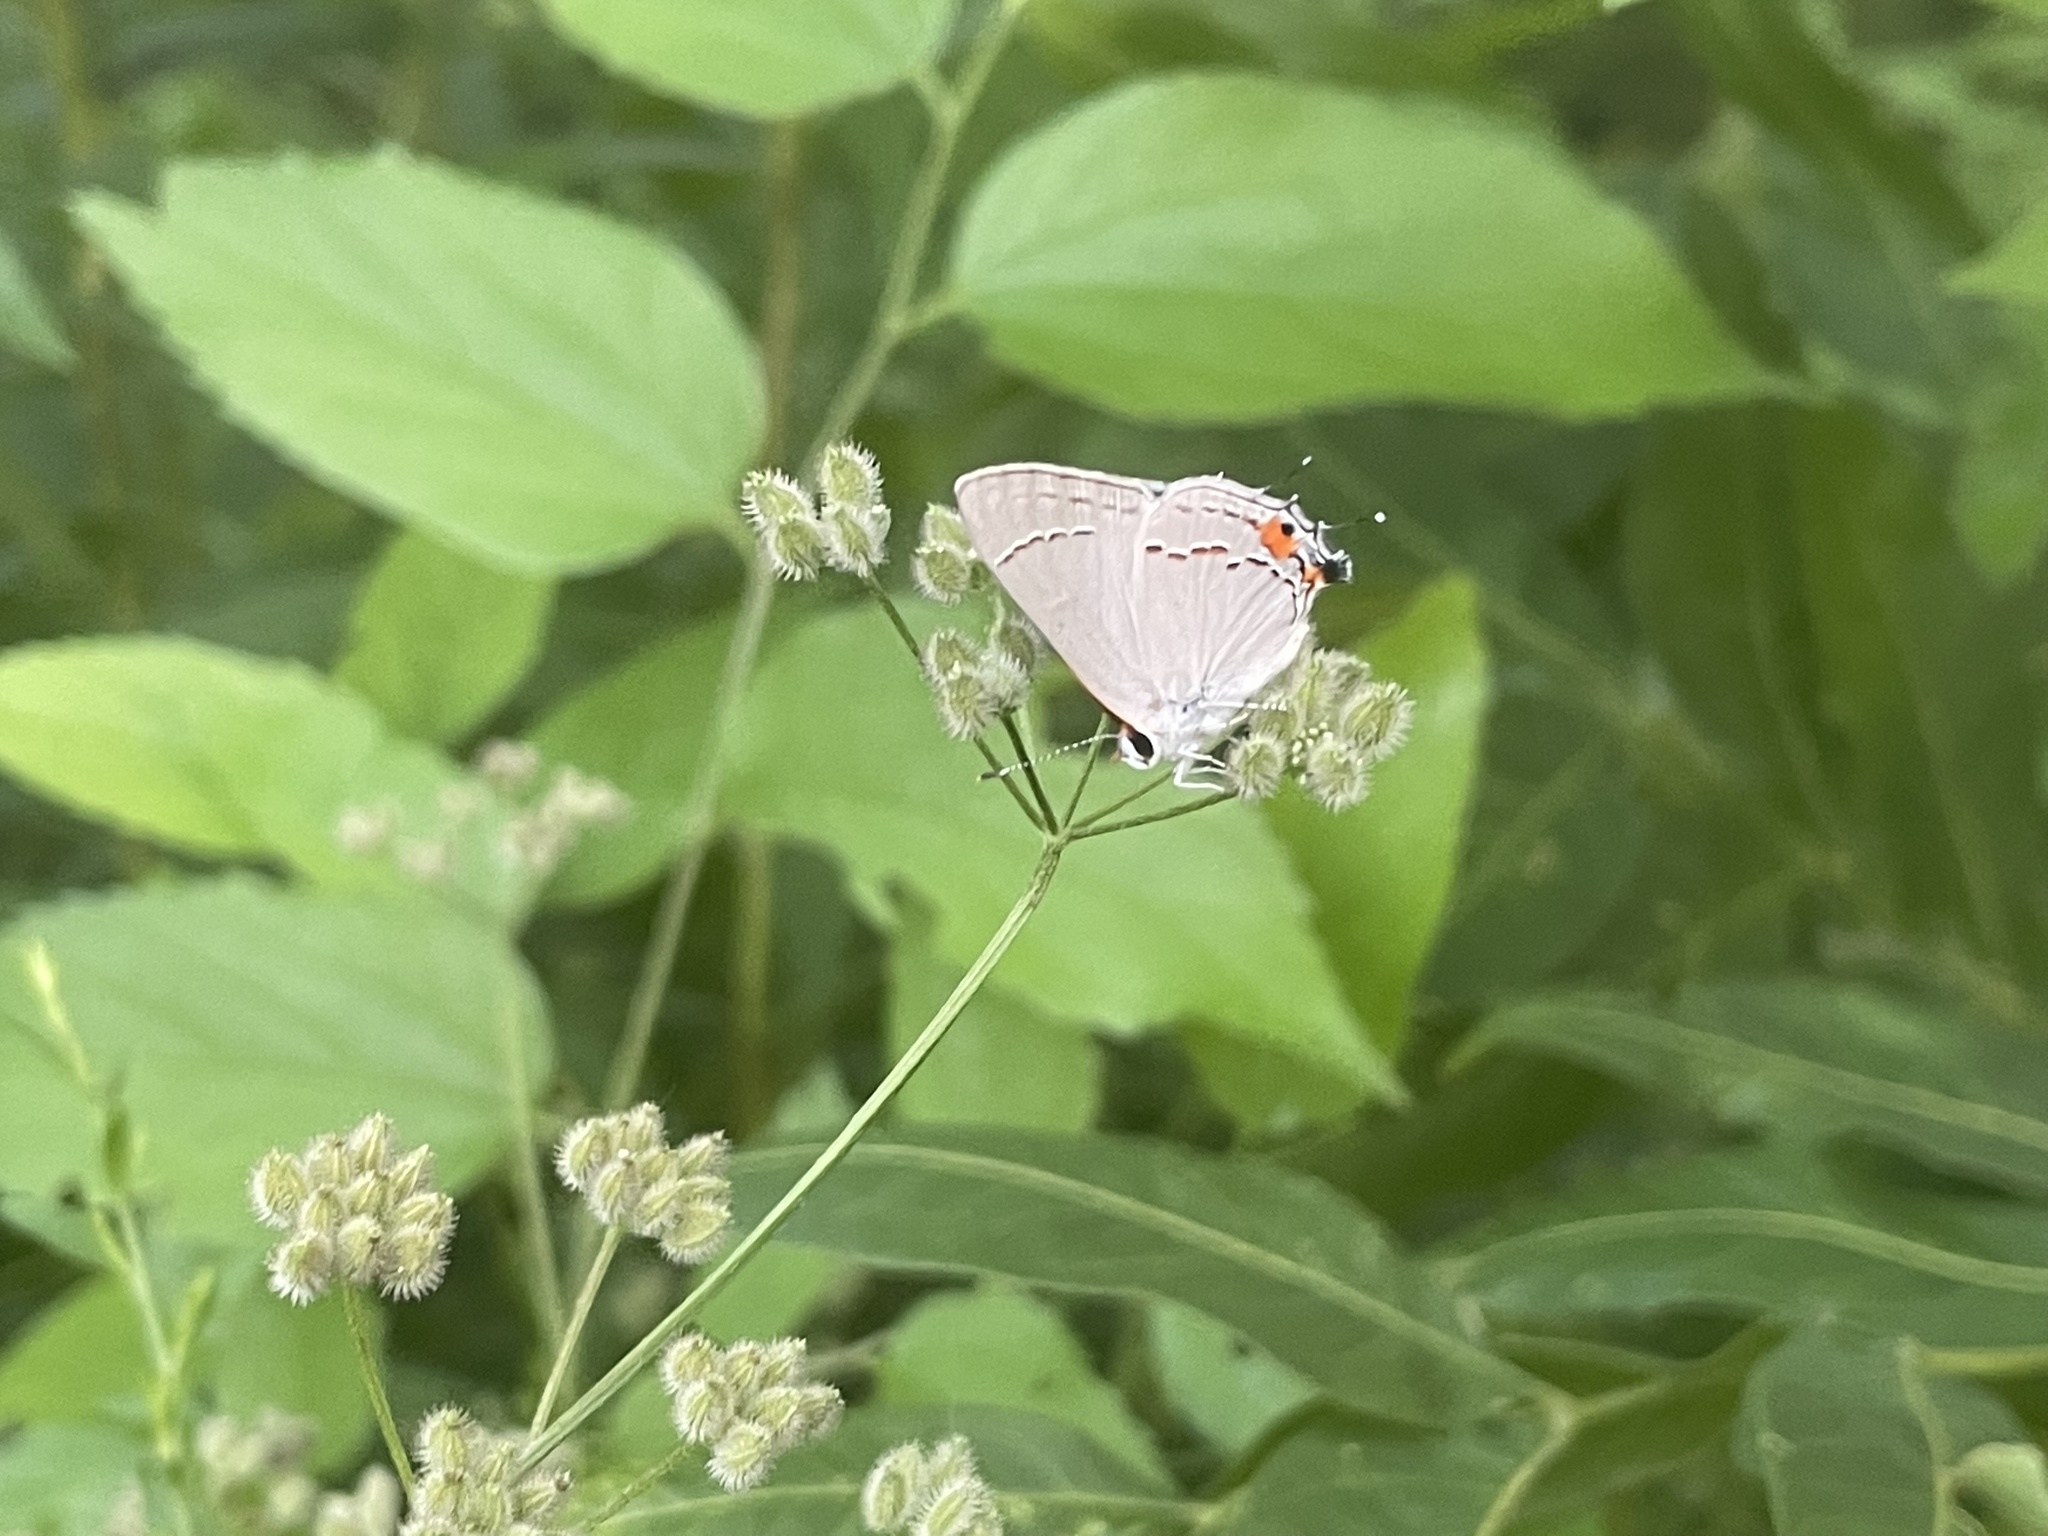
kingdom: Animalia
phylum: Arthropoda
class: Insecta
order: Lepidoptera
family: Lycaenidae
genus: Strymon
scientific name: Strymon melinus
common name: Gray hairstreak
